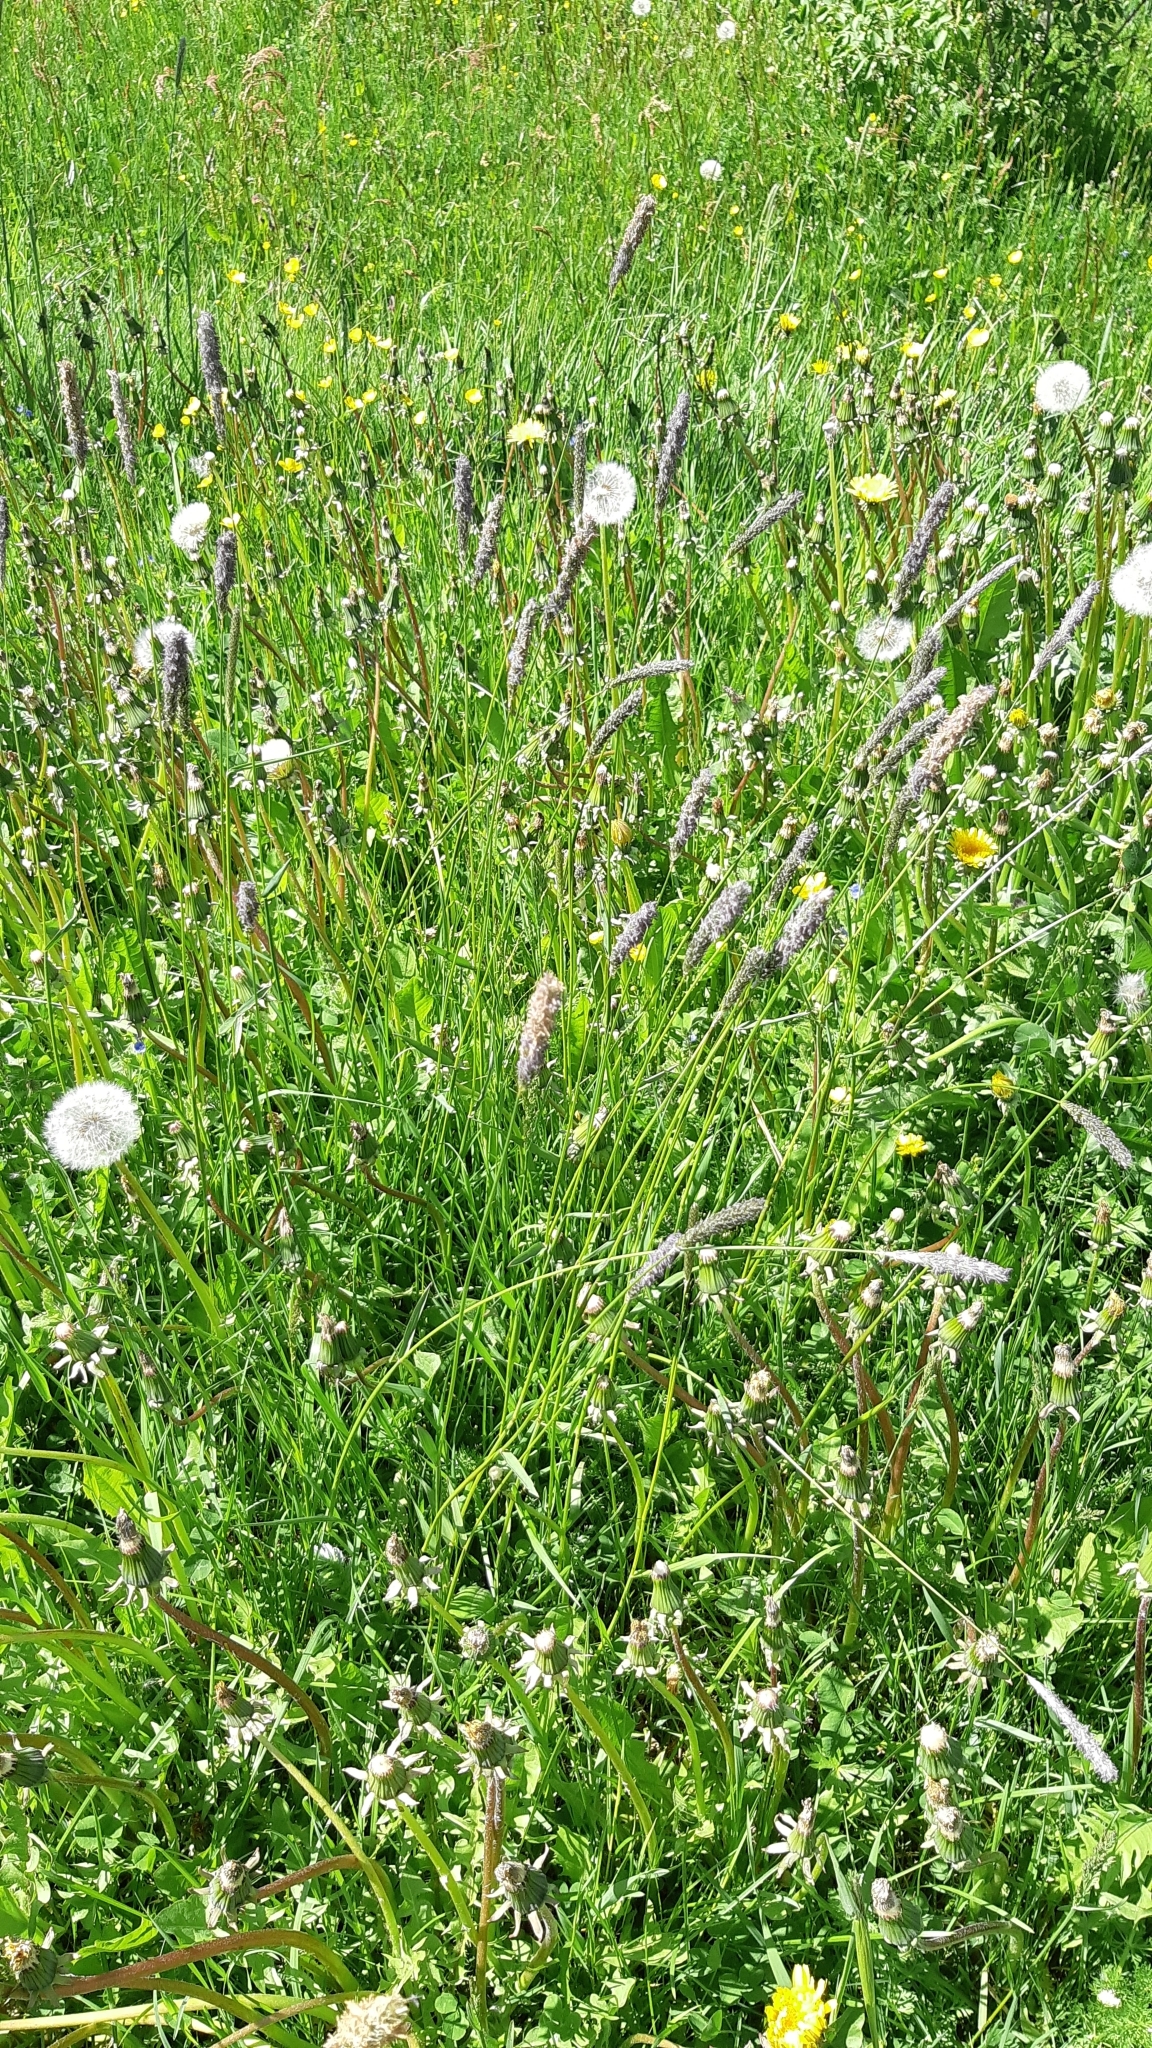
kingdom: Plantae
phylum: Tracheophyta
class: Liliopsida
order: Poales
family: Poaceae
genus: Alopecurus
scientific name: Alopecurus pratensis
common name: Meadow foxtail
